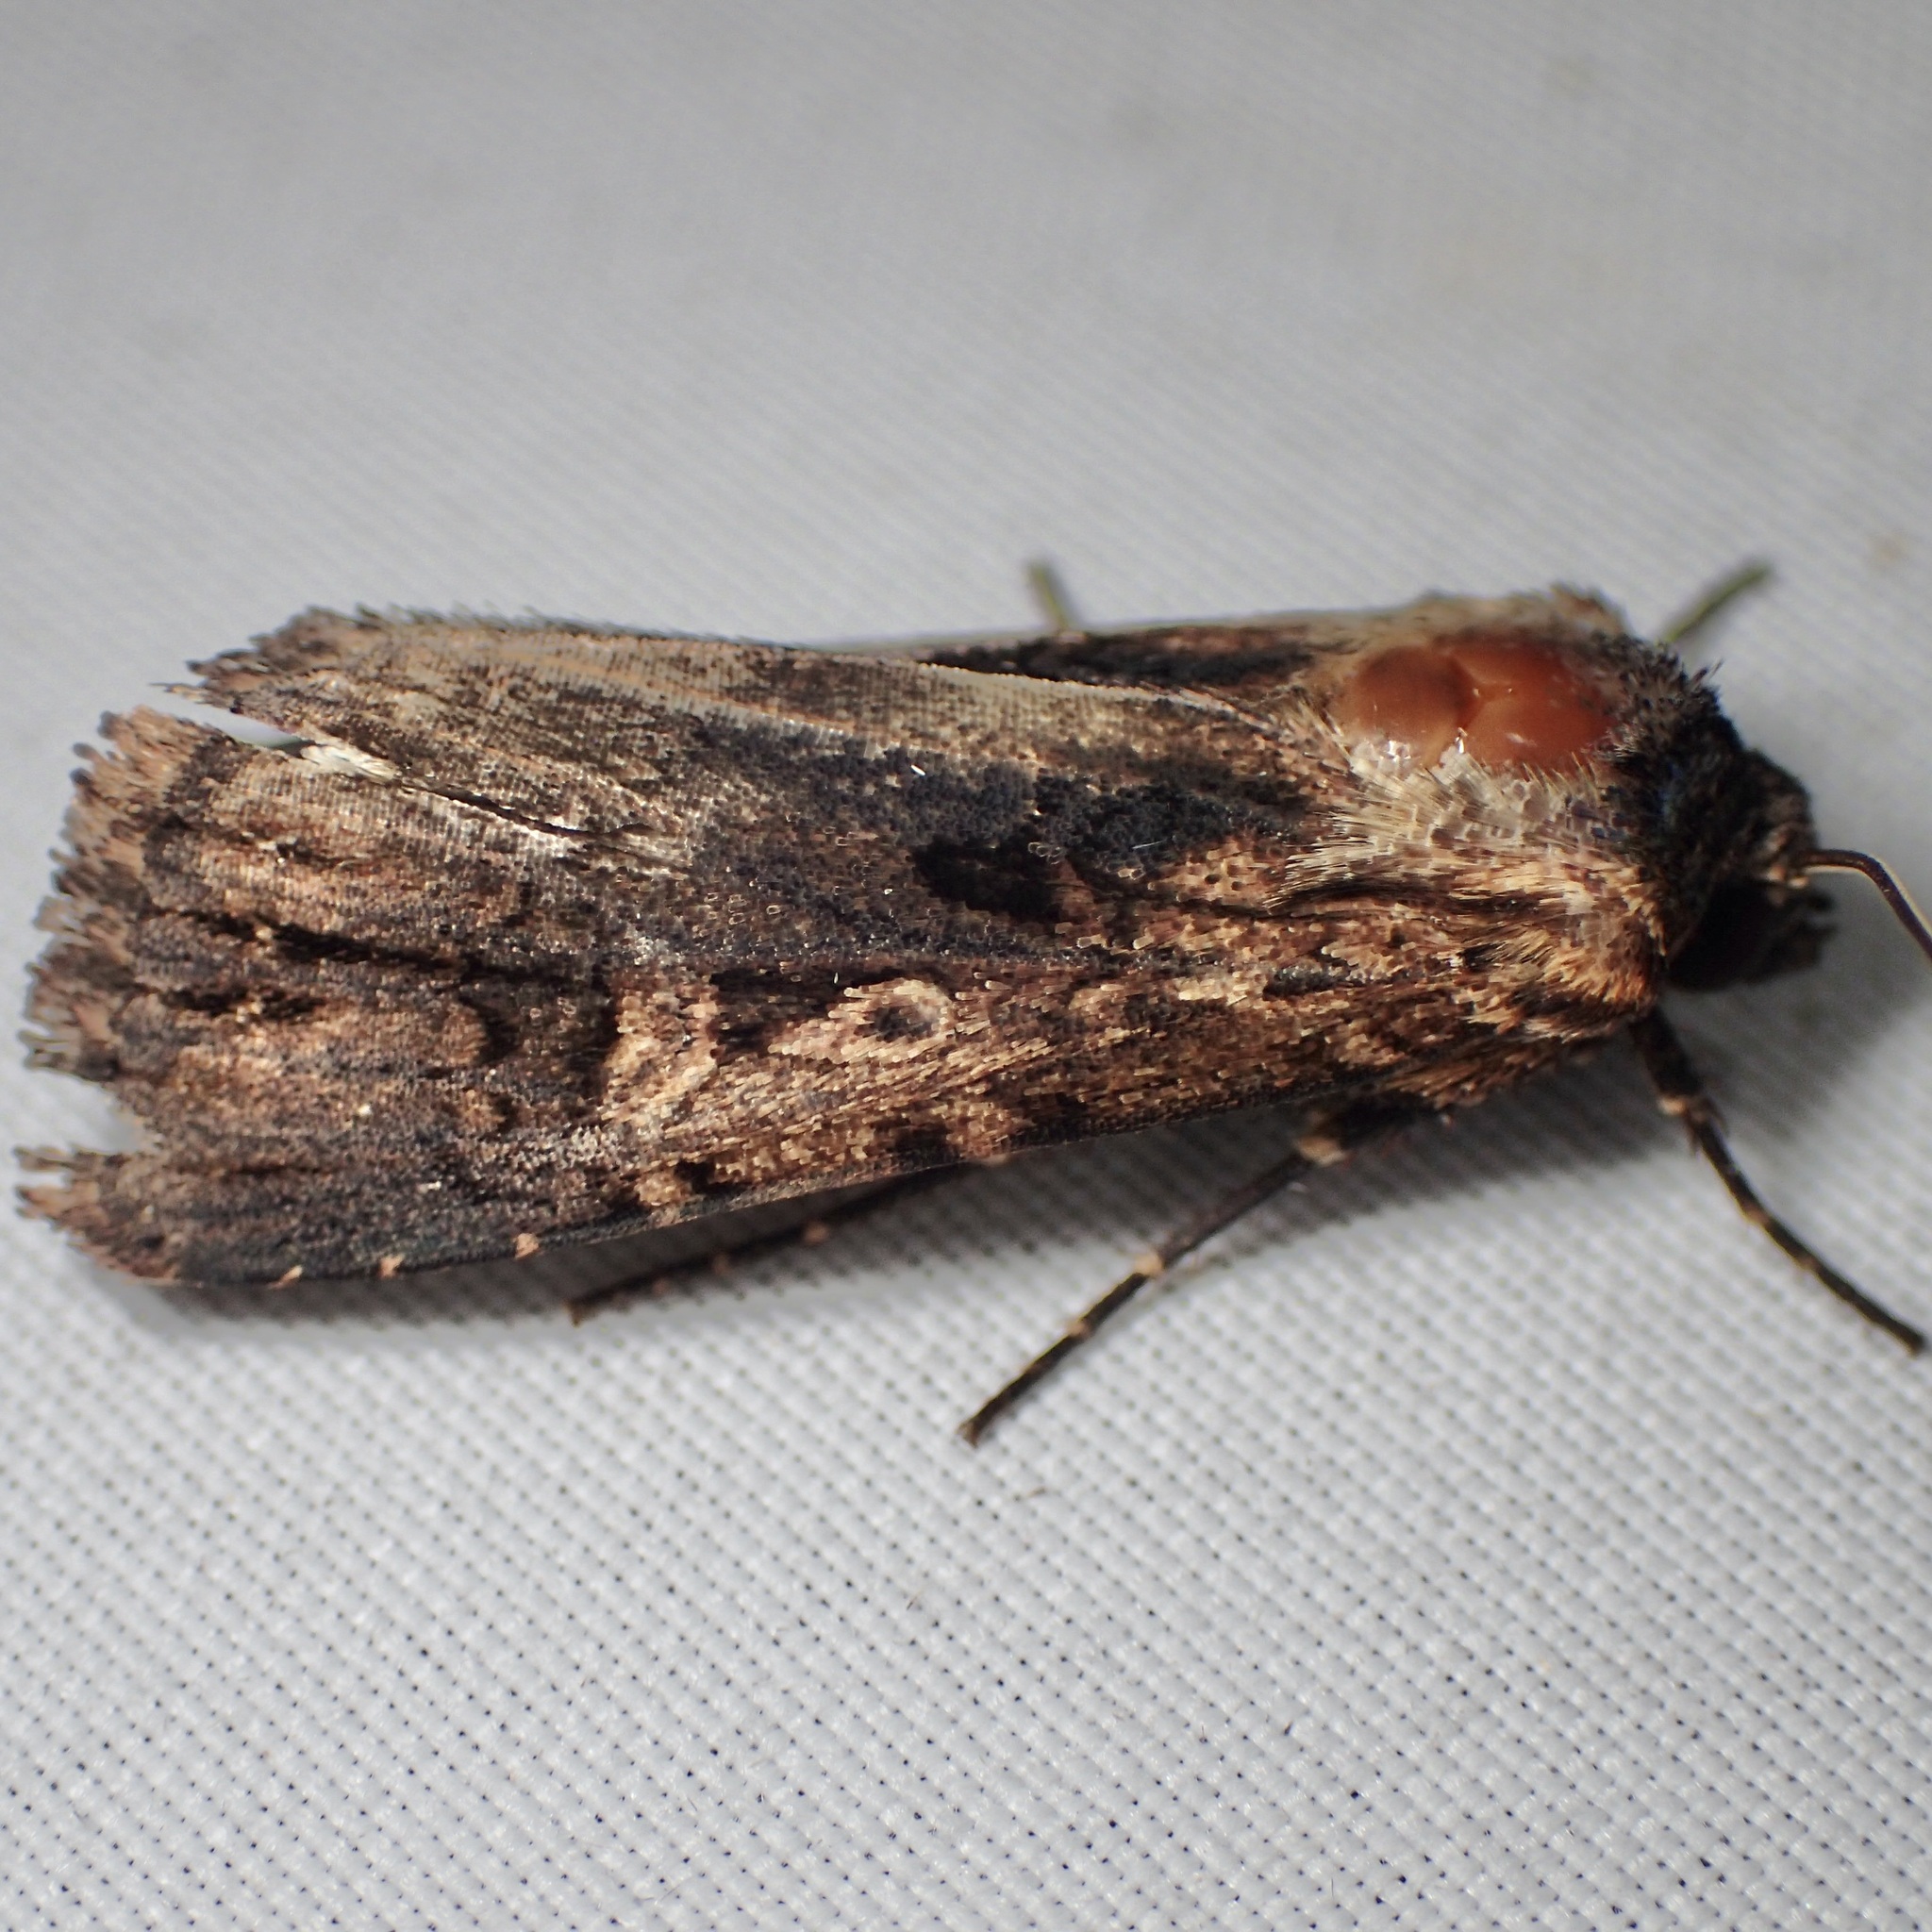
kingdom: Animalia
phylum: Arthropoda
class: Insecta
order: Lepidoptera
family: Noctuidae
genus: Dichagyris
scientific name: Dichagyris proclivis
